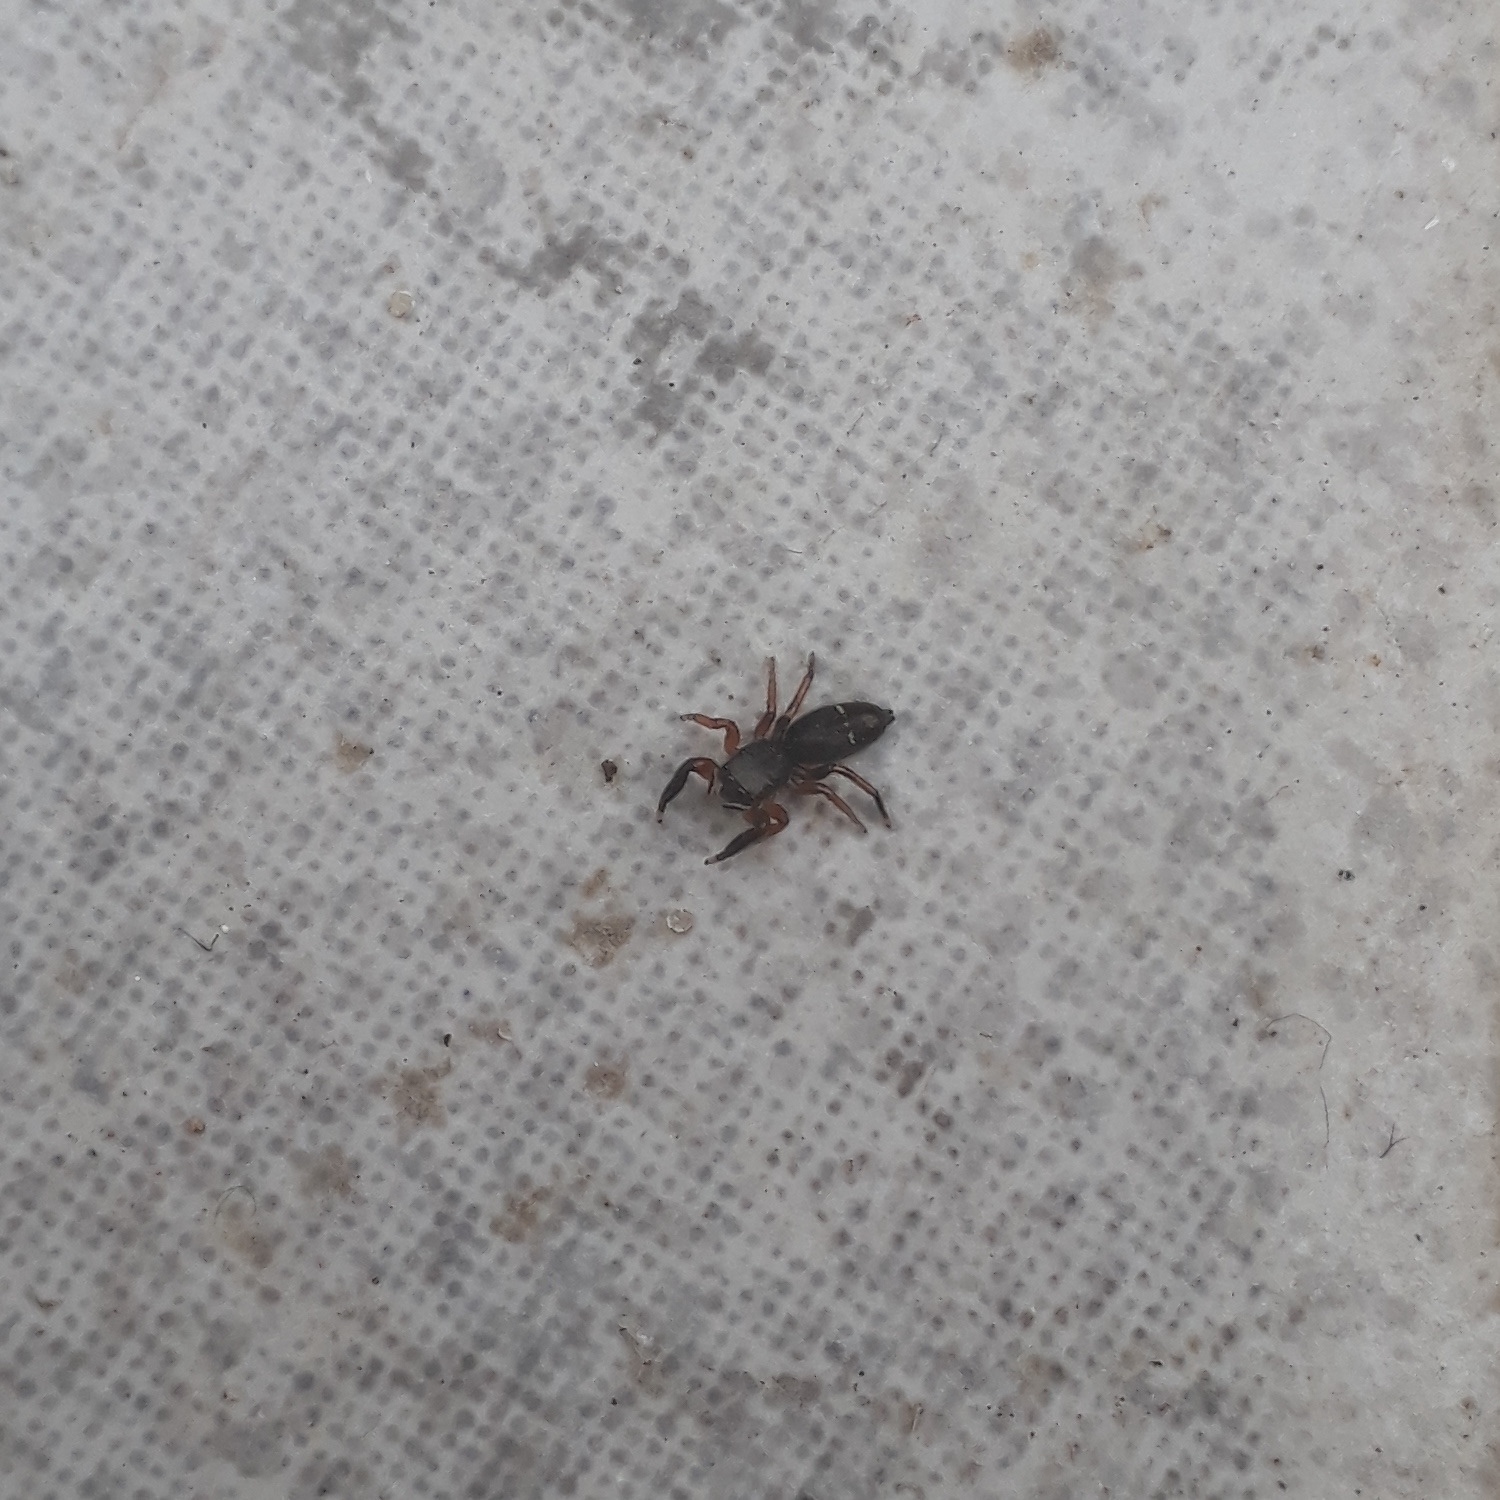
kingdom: Animalia
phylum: Arthropoda
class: Arachnida
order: Araneae
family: Salticidae
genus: Breda
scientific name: Breda
